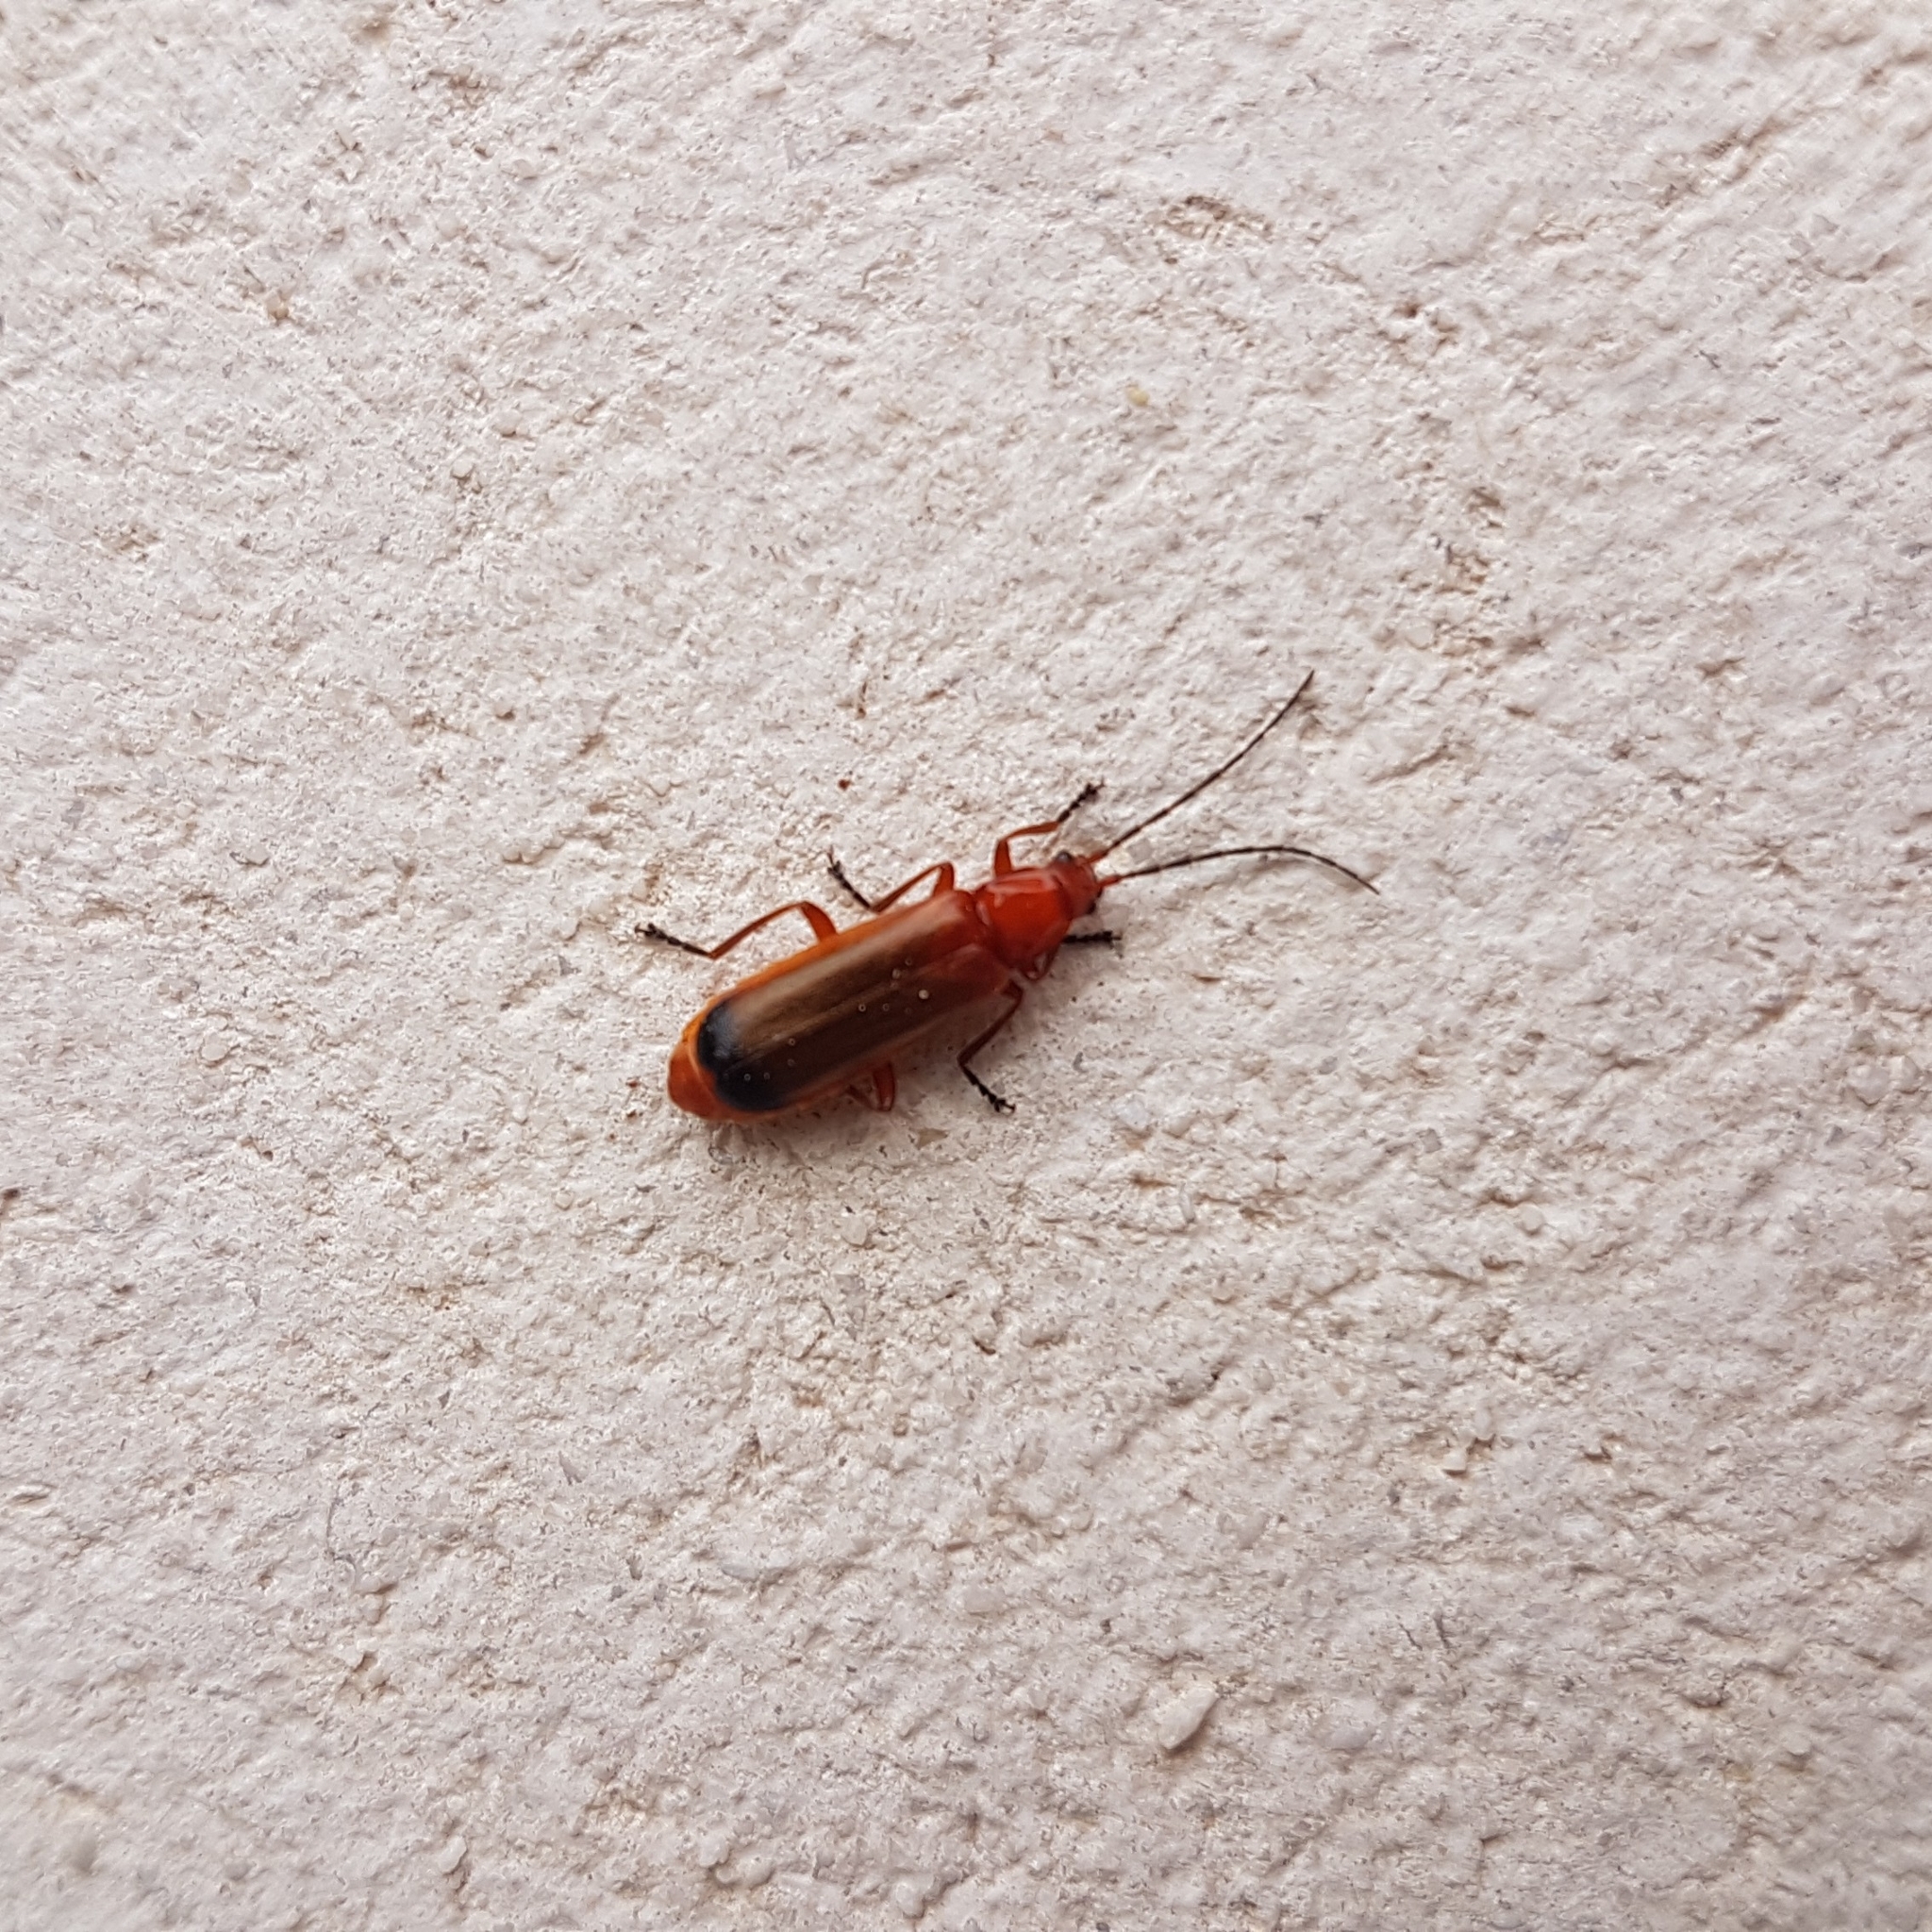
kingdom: Animalia
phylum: Arthropoda
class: Insecta
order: Coleoptera
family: Cantharidae
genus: Rhagonycha
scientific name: Rhagonycha fulva
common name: Common red soldier beetle
